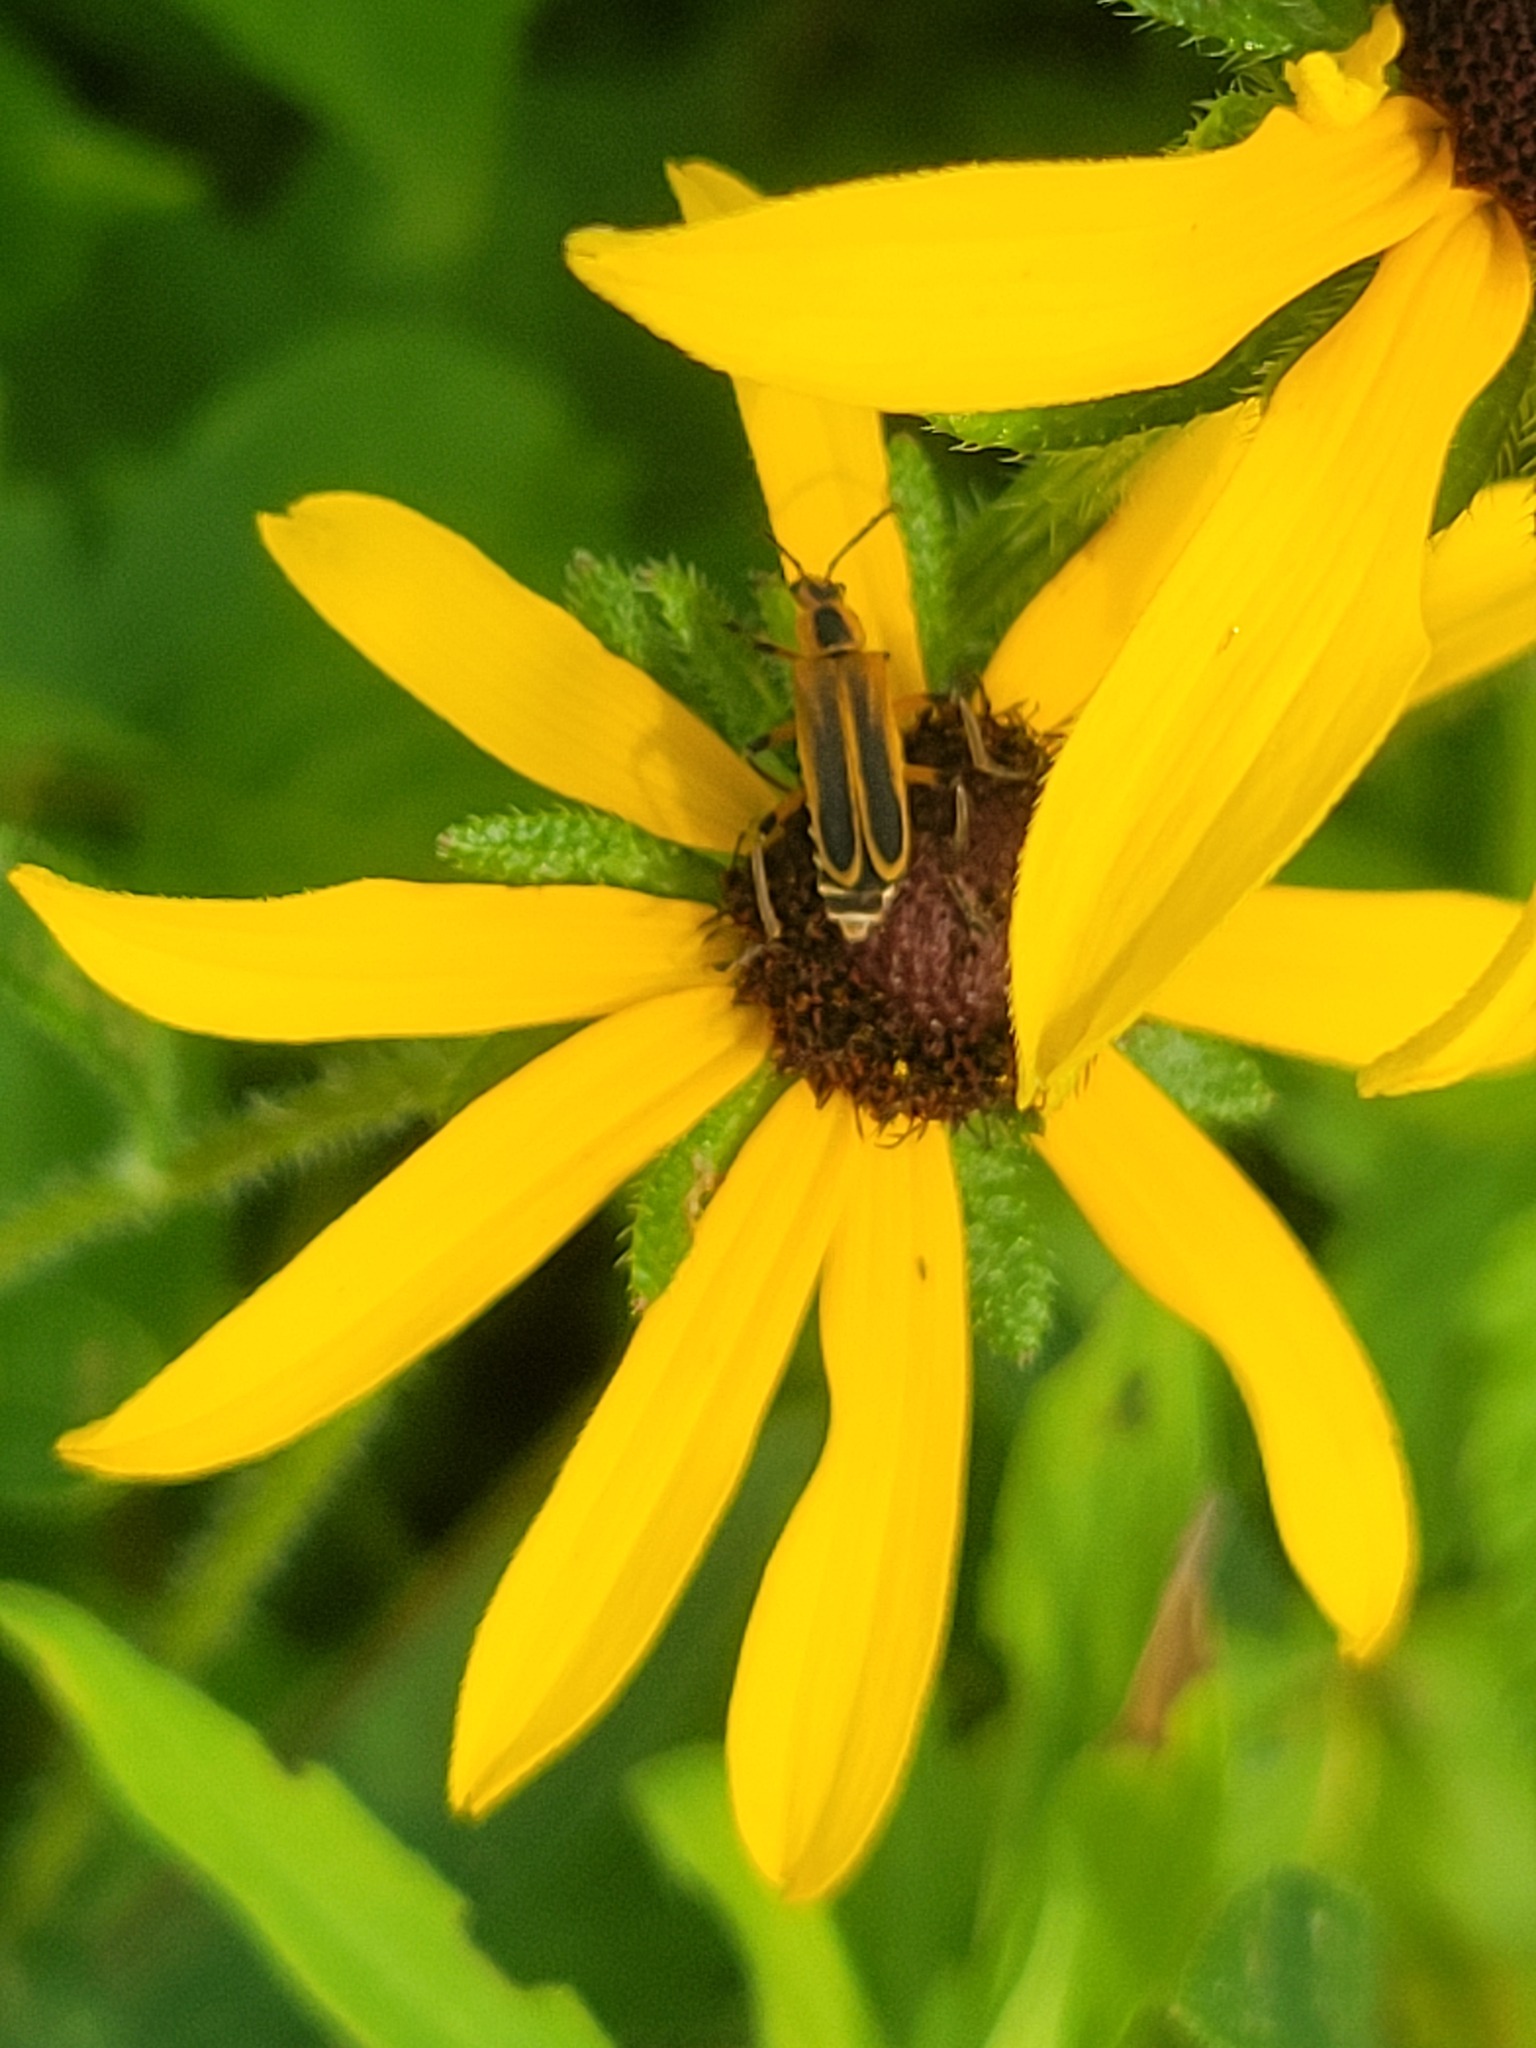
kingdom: Plantae
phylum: Tracheophyta
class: Magnoliopsida
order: Asterales
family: Asteraceae
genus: Rudbeckia
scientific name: Rudbeckia hirta
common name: Black-eyed-susan
